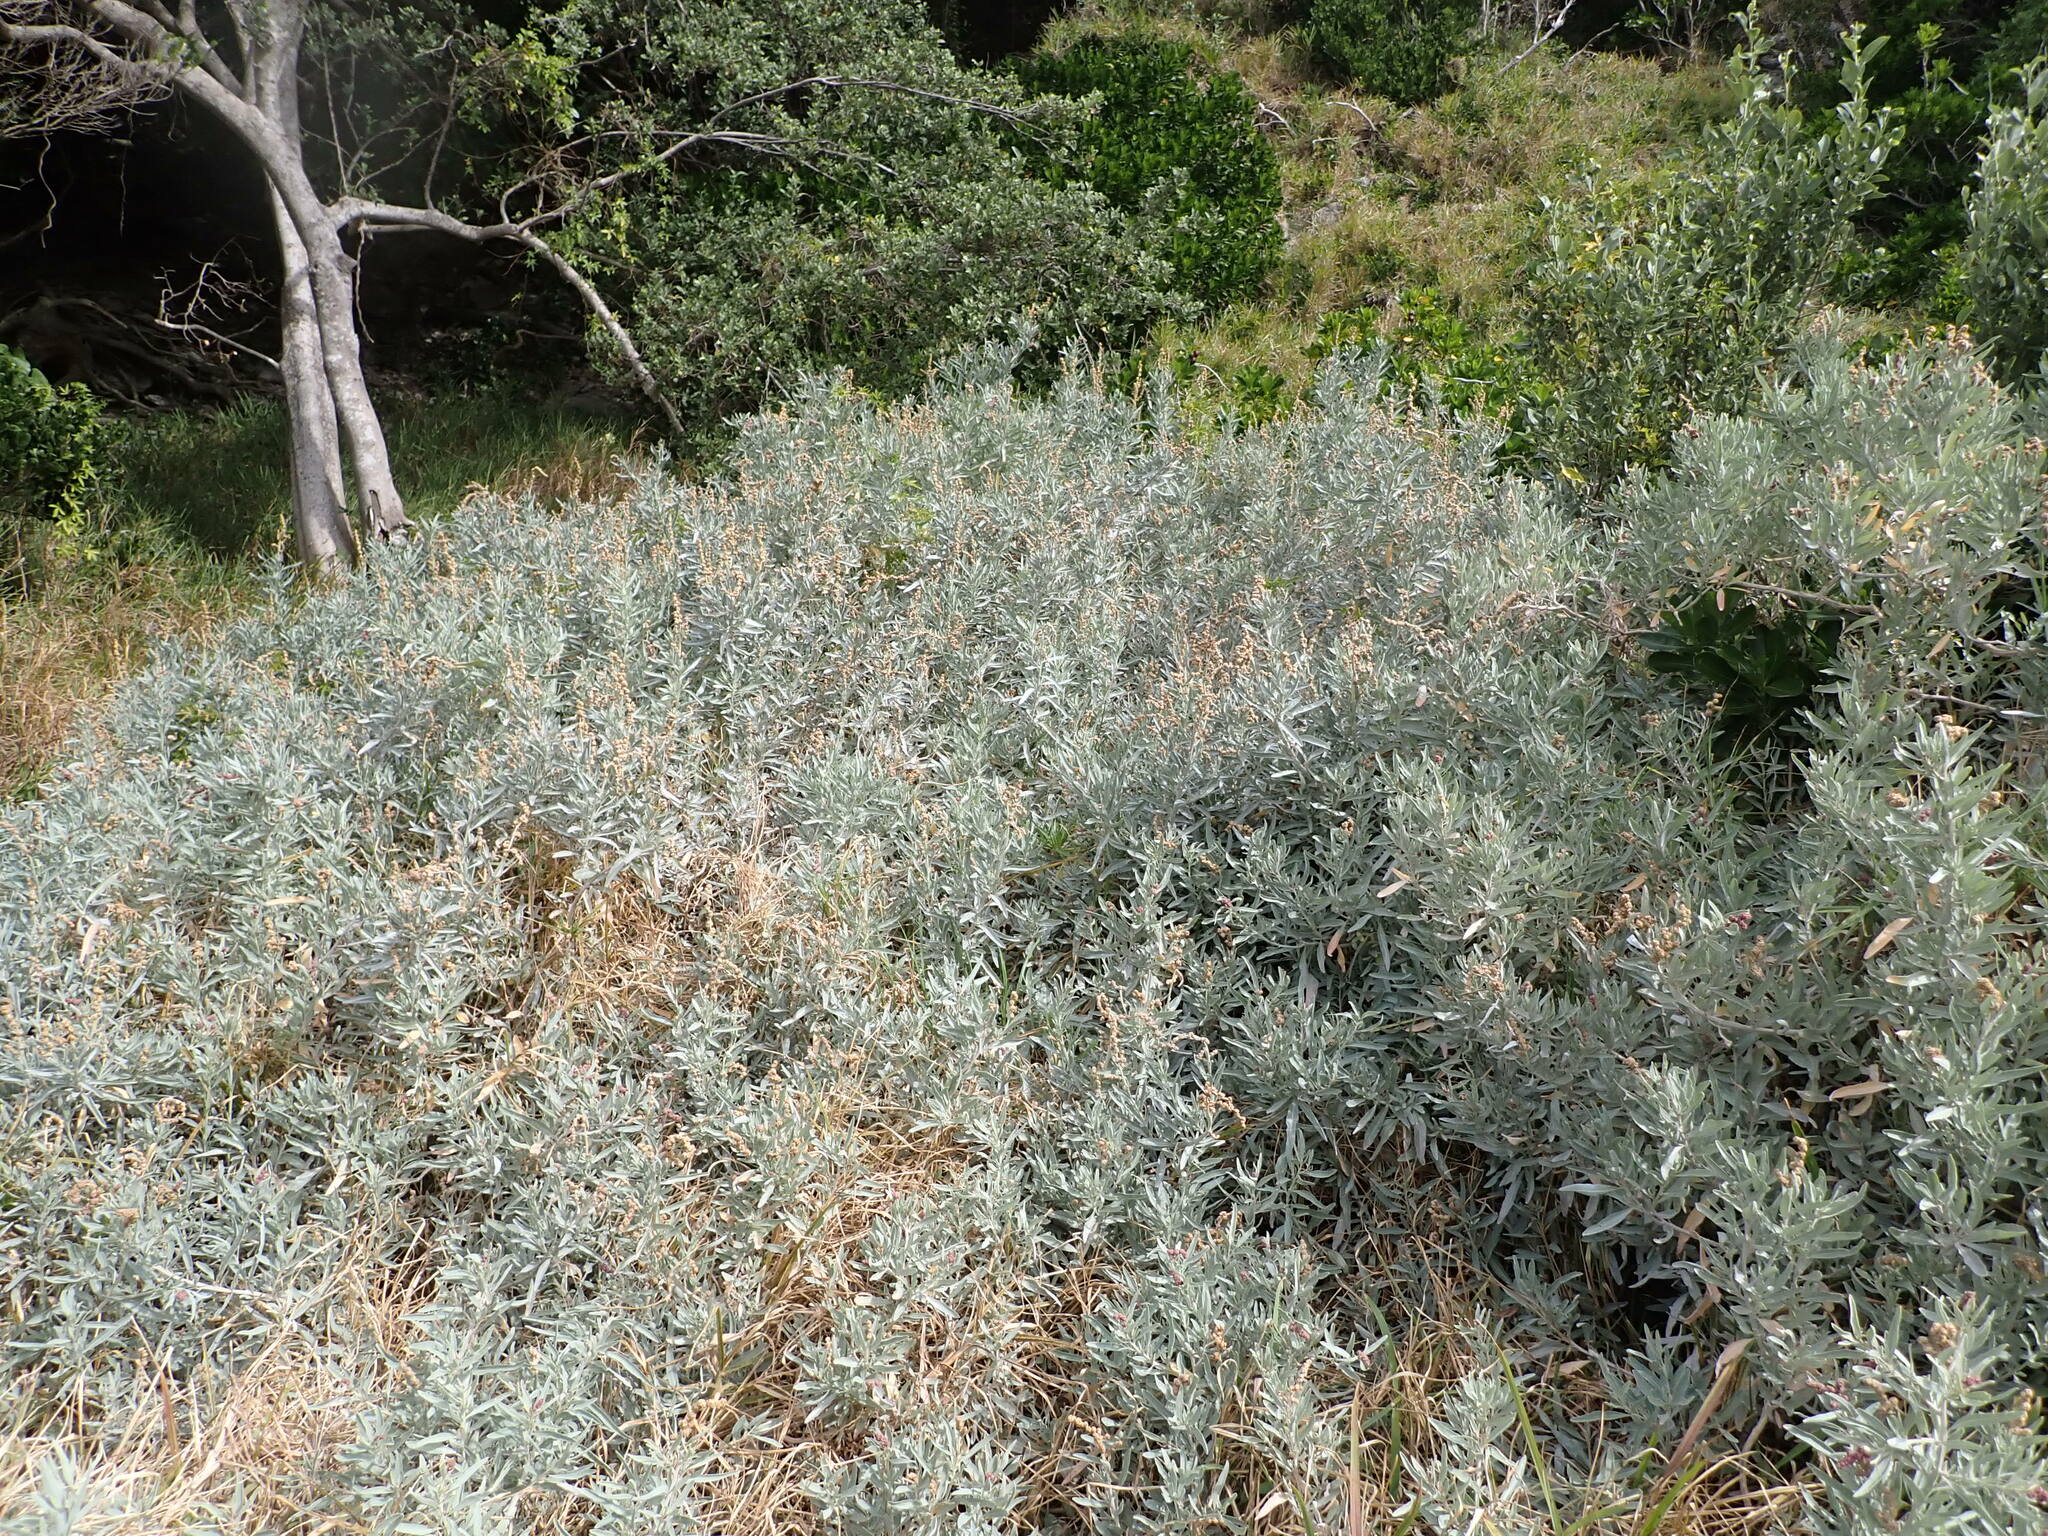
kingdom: Plantae
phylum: Tracheophyta
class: Magnoliopsida
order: Caryophyllales
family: Amaranthaceae
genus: Atriplex
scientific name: Atriplex cinerea
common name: Grey saltbush
